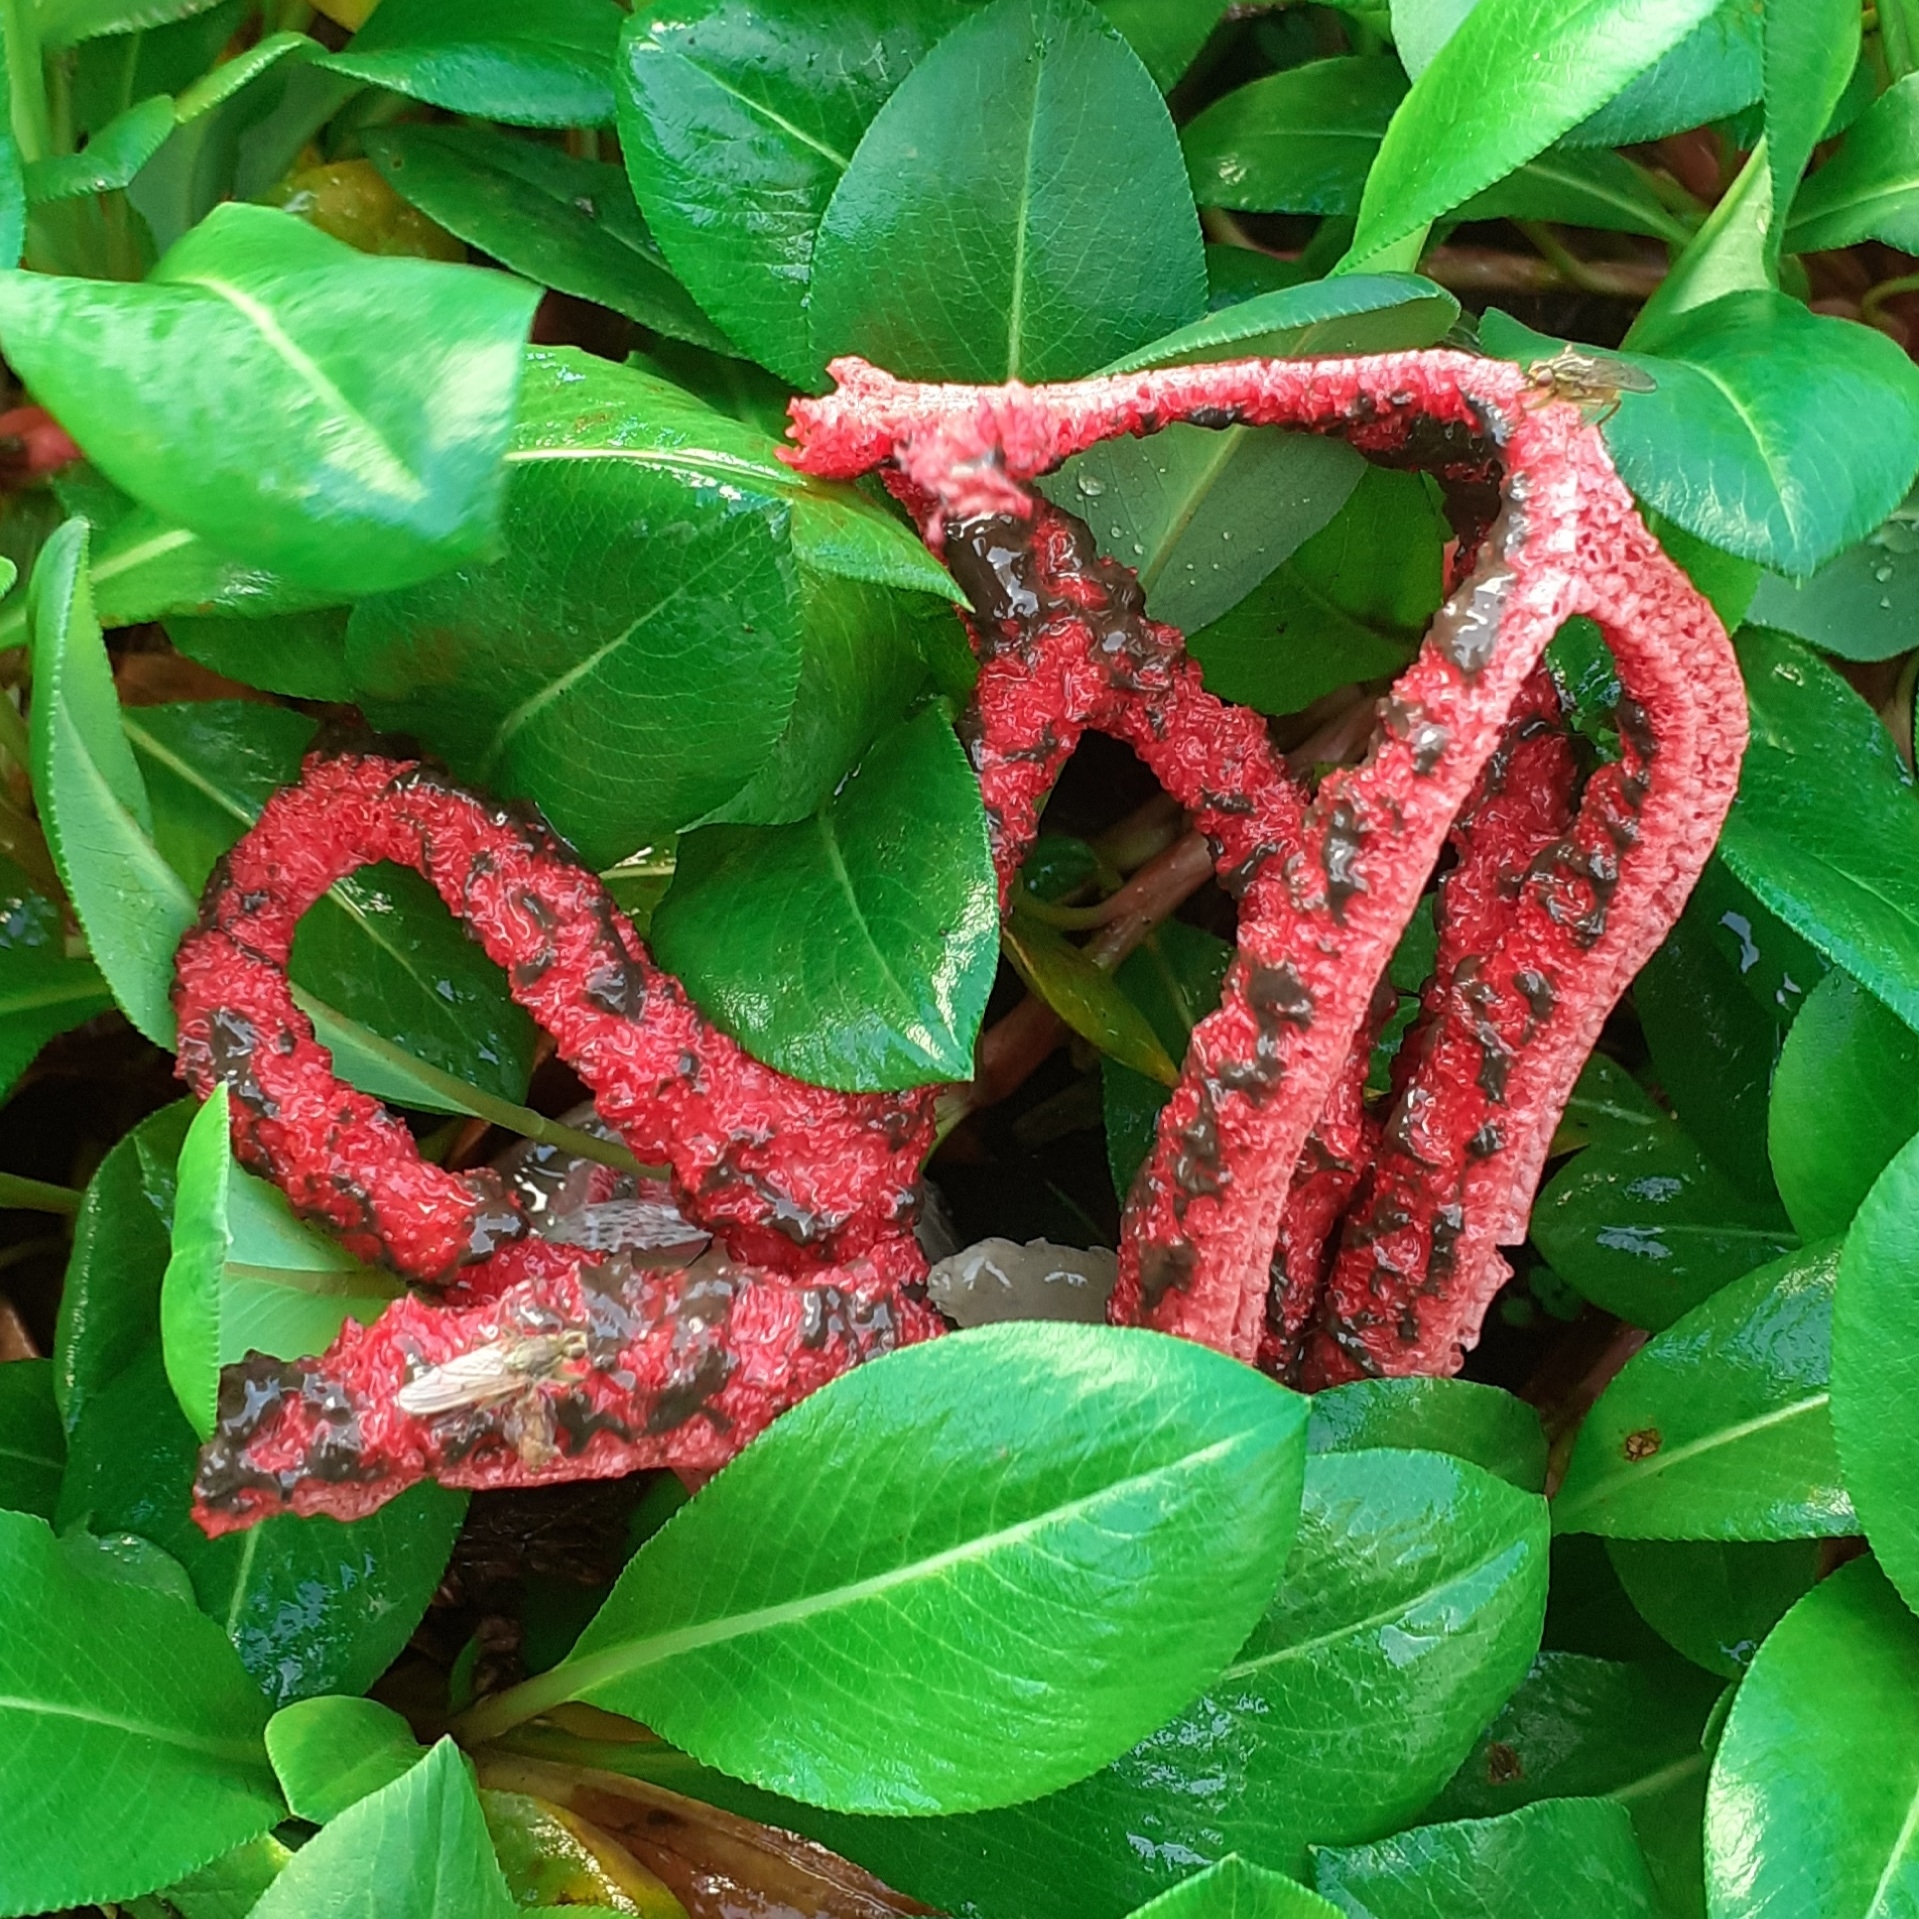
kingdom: Fungi
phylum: Basidiomycota
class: Agaricomycetes
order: Phallales
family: Phallaceae
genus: Clathrus
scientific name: Clathrus archeri
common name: Devil's fingers
